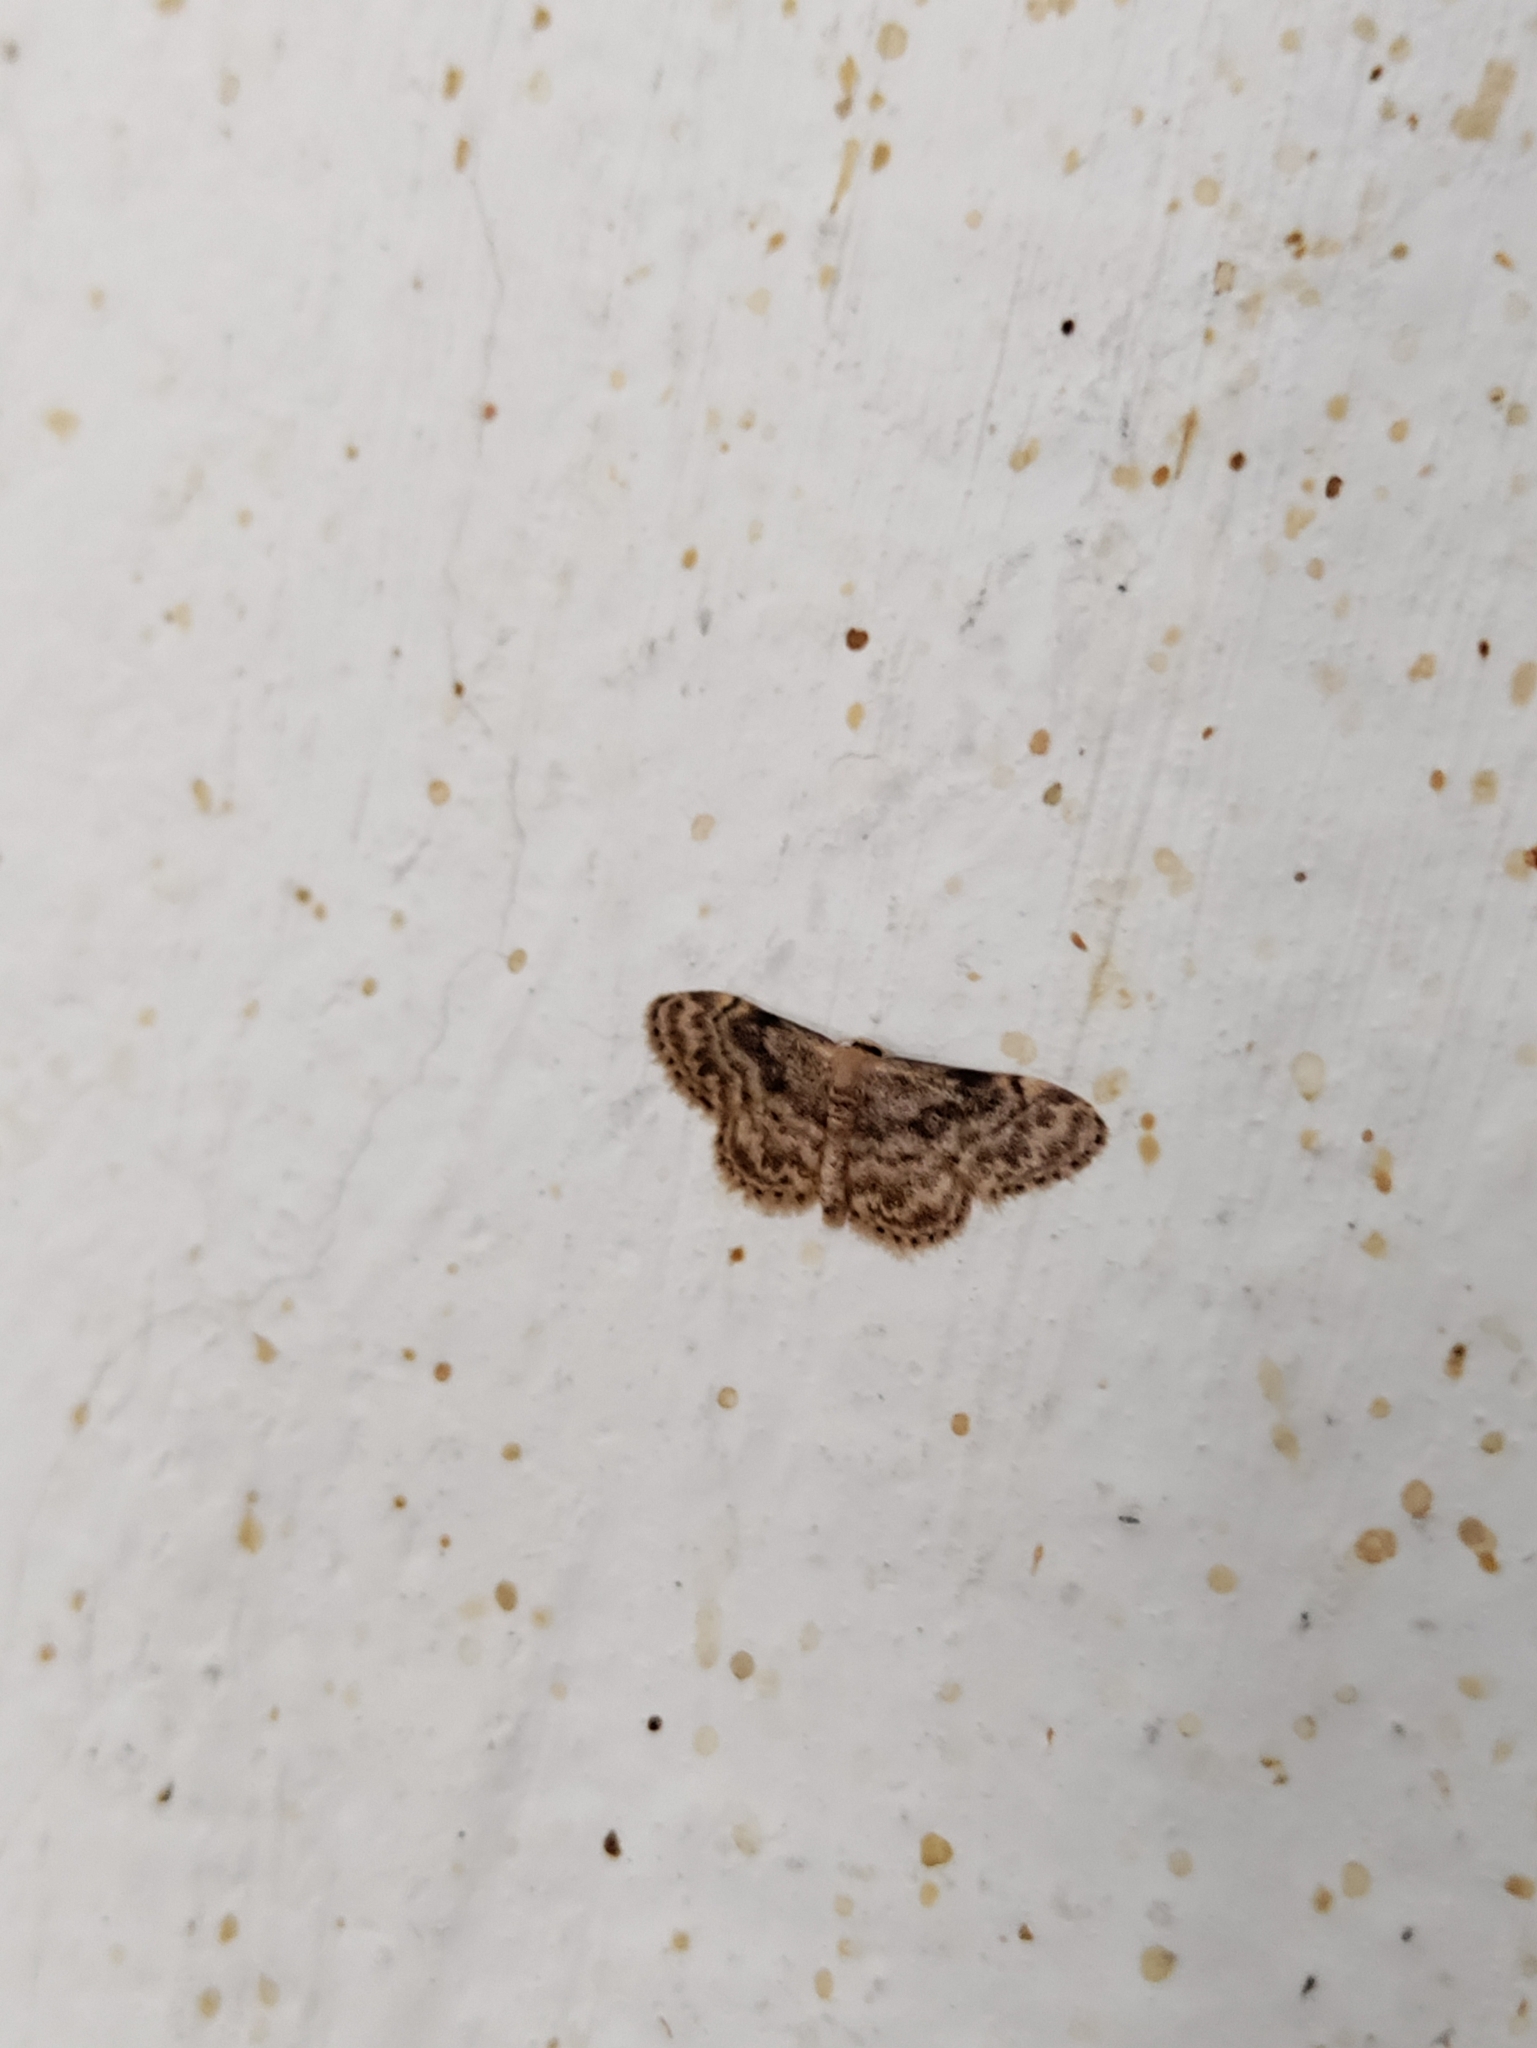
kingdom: Animalia
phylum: Arthropoda
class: Insecta
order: Lepidoptera
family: Geometridae
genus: Idaea
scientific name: Idaea inquinata
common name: Rusty wave
